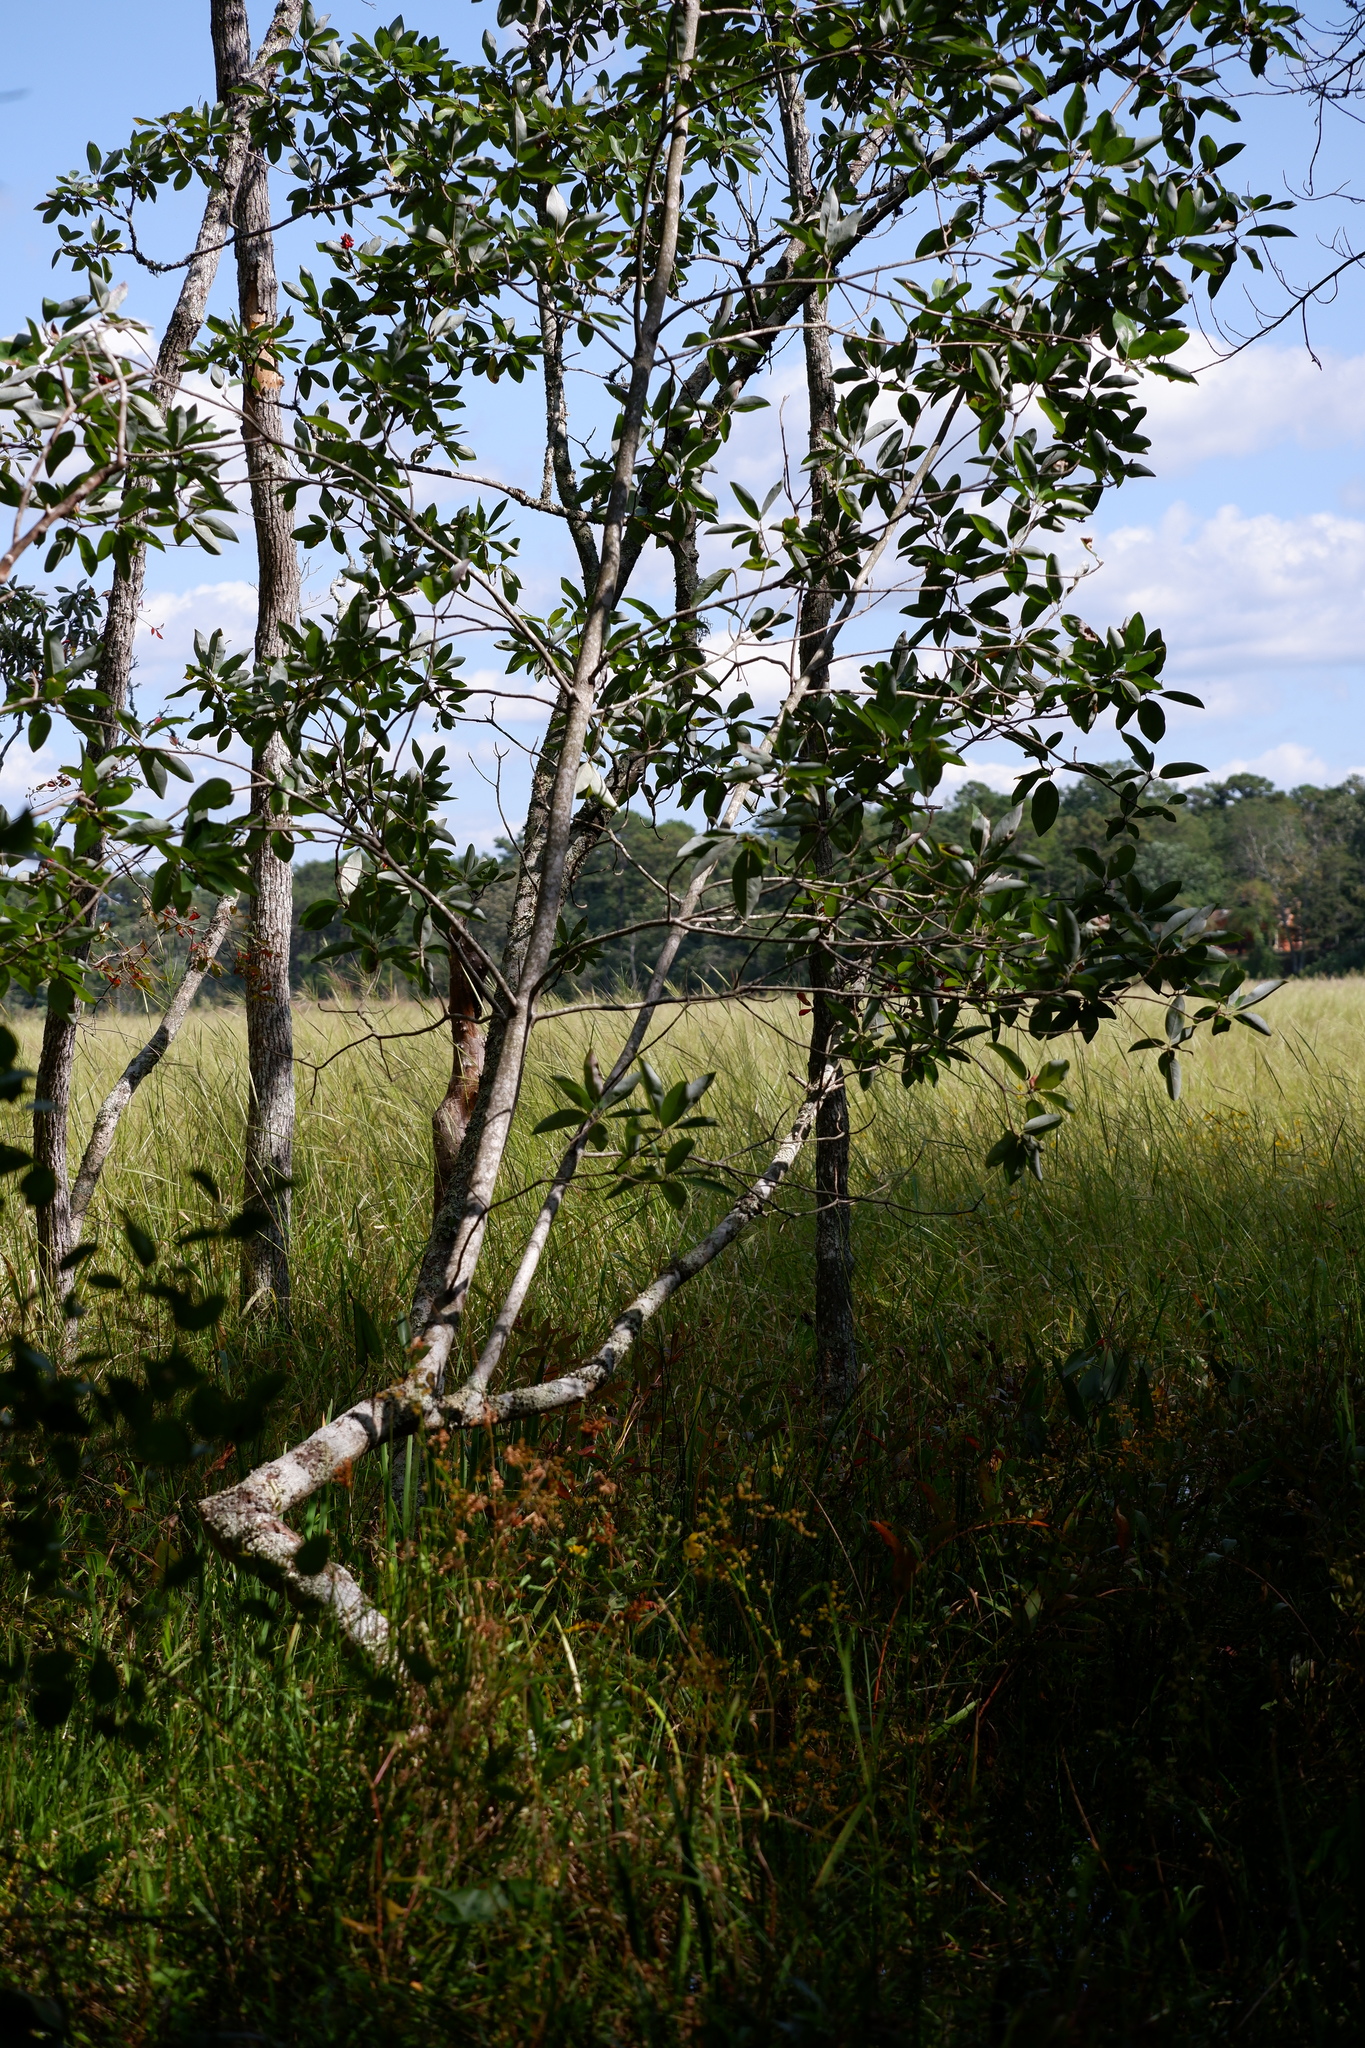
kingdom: Plantae
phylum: Tracheophyta
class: Magnoliopsida
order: Magnoliales
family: Magnoliaceae
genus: Magnolia
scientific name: Magnolia virginiana
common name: Swamp bay
